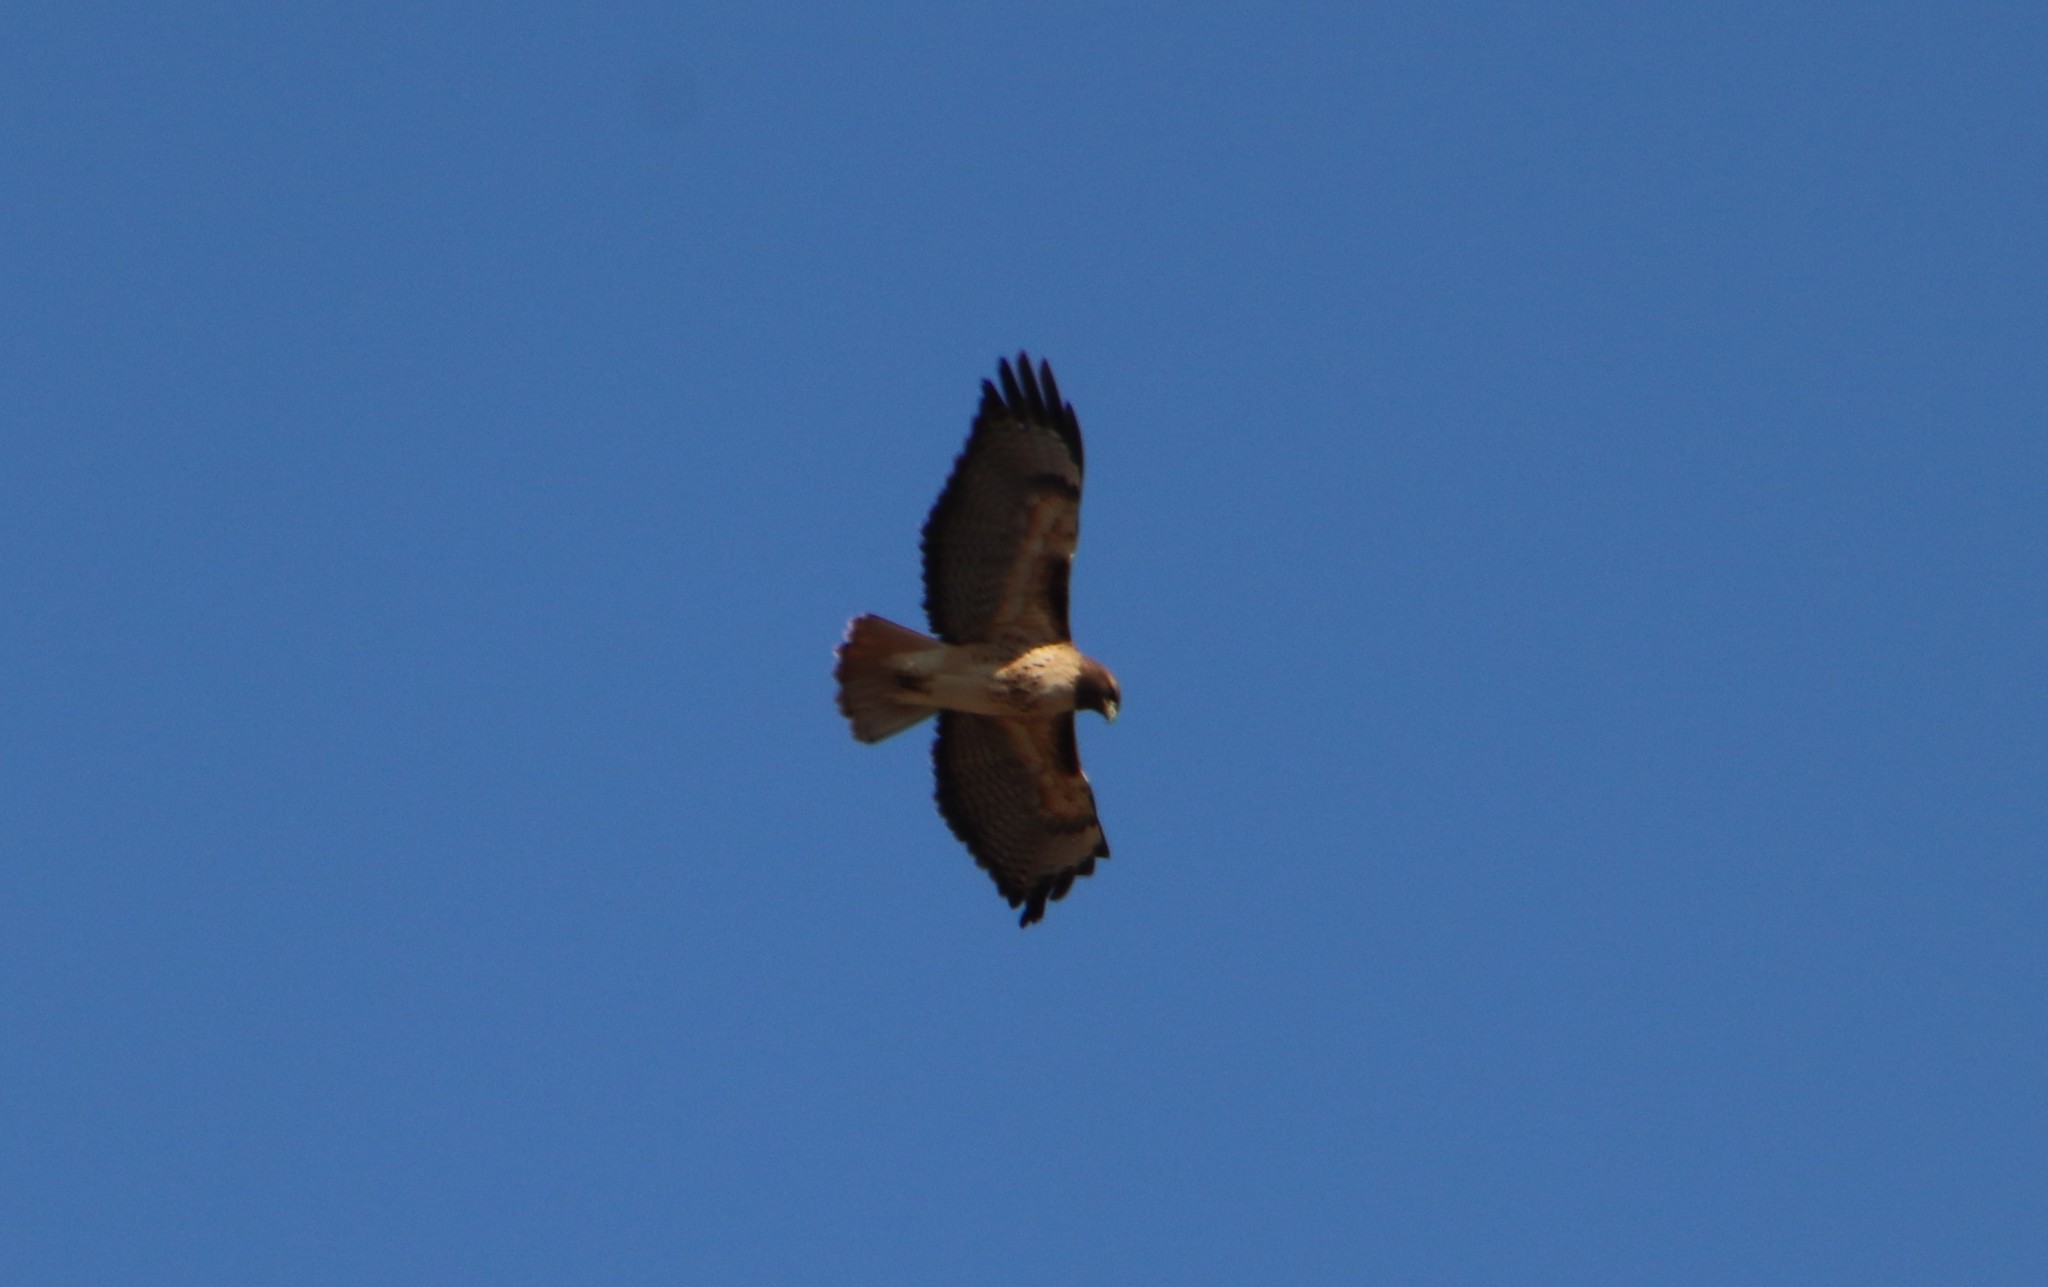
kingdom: Animalia
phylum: Chordata
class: Aves
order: Accipitriformes
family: Accipitridae
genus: Buteo
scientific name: Buteo jamaicensis
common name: Red-tailed hawk
